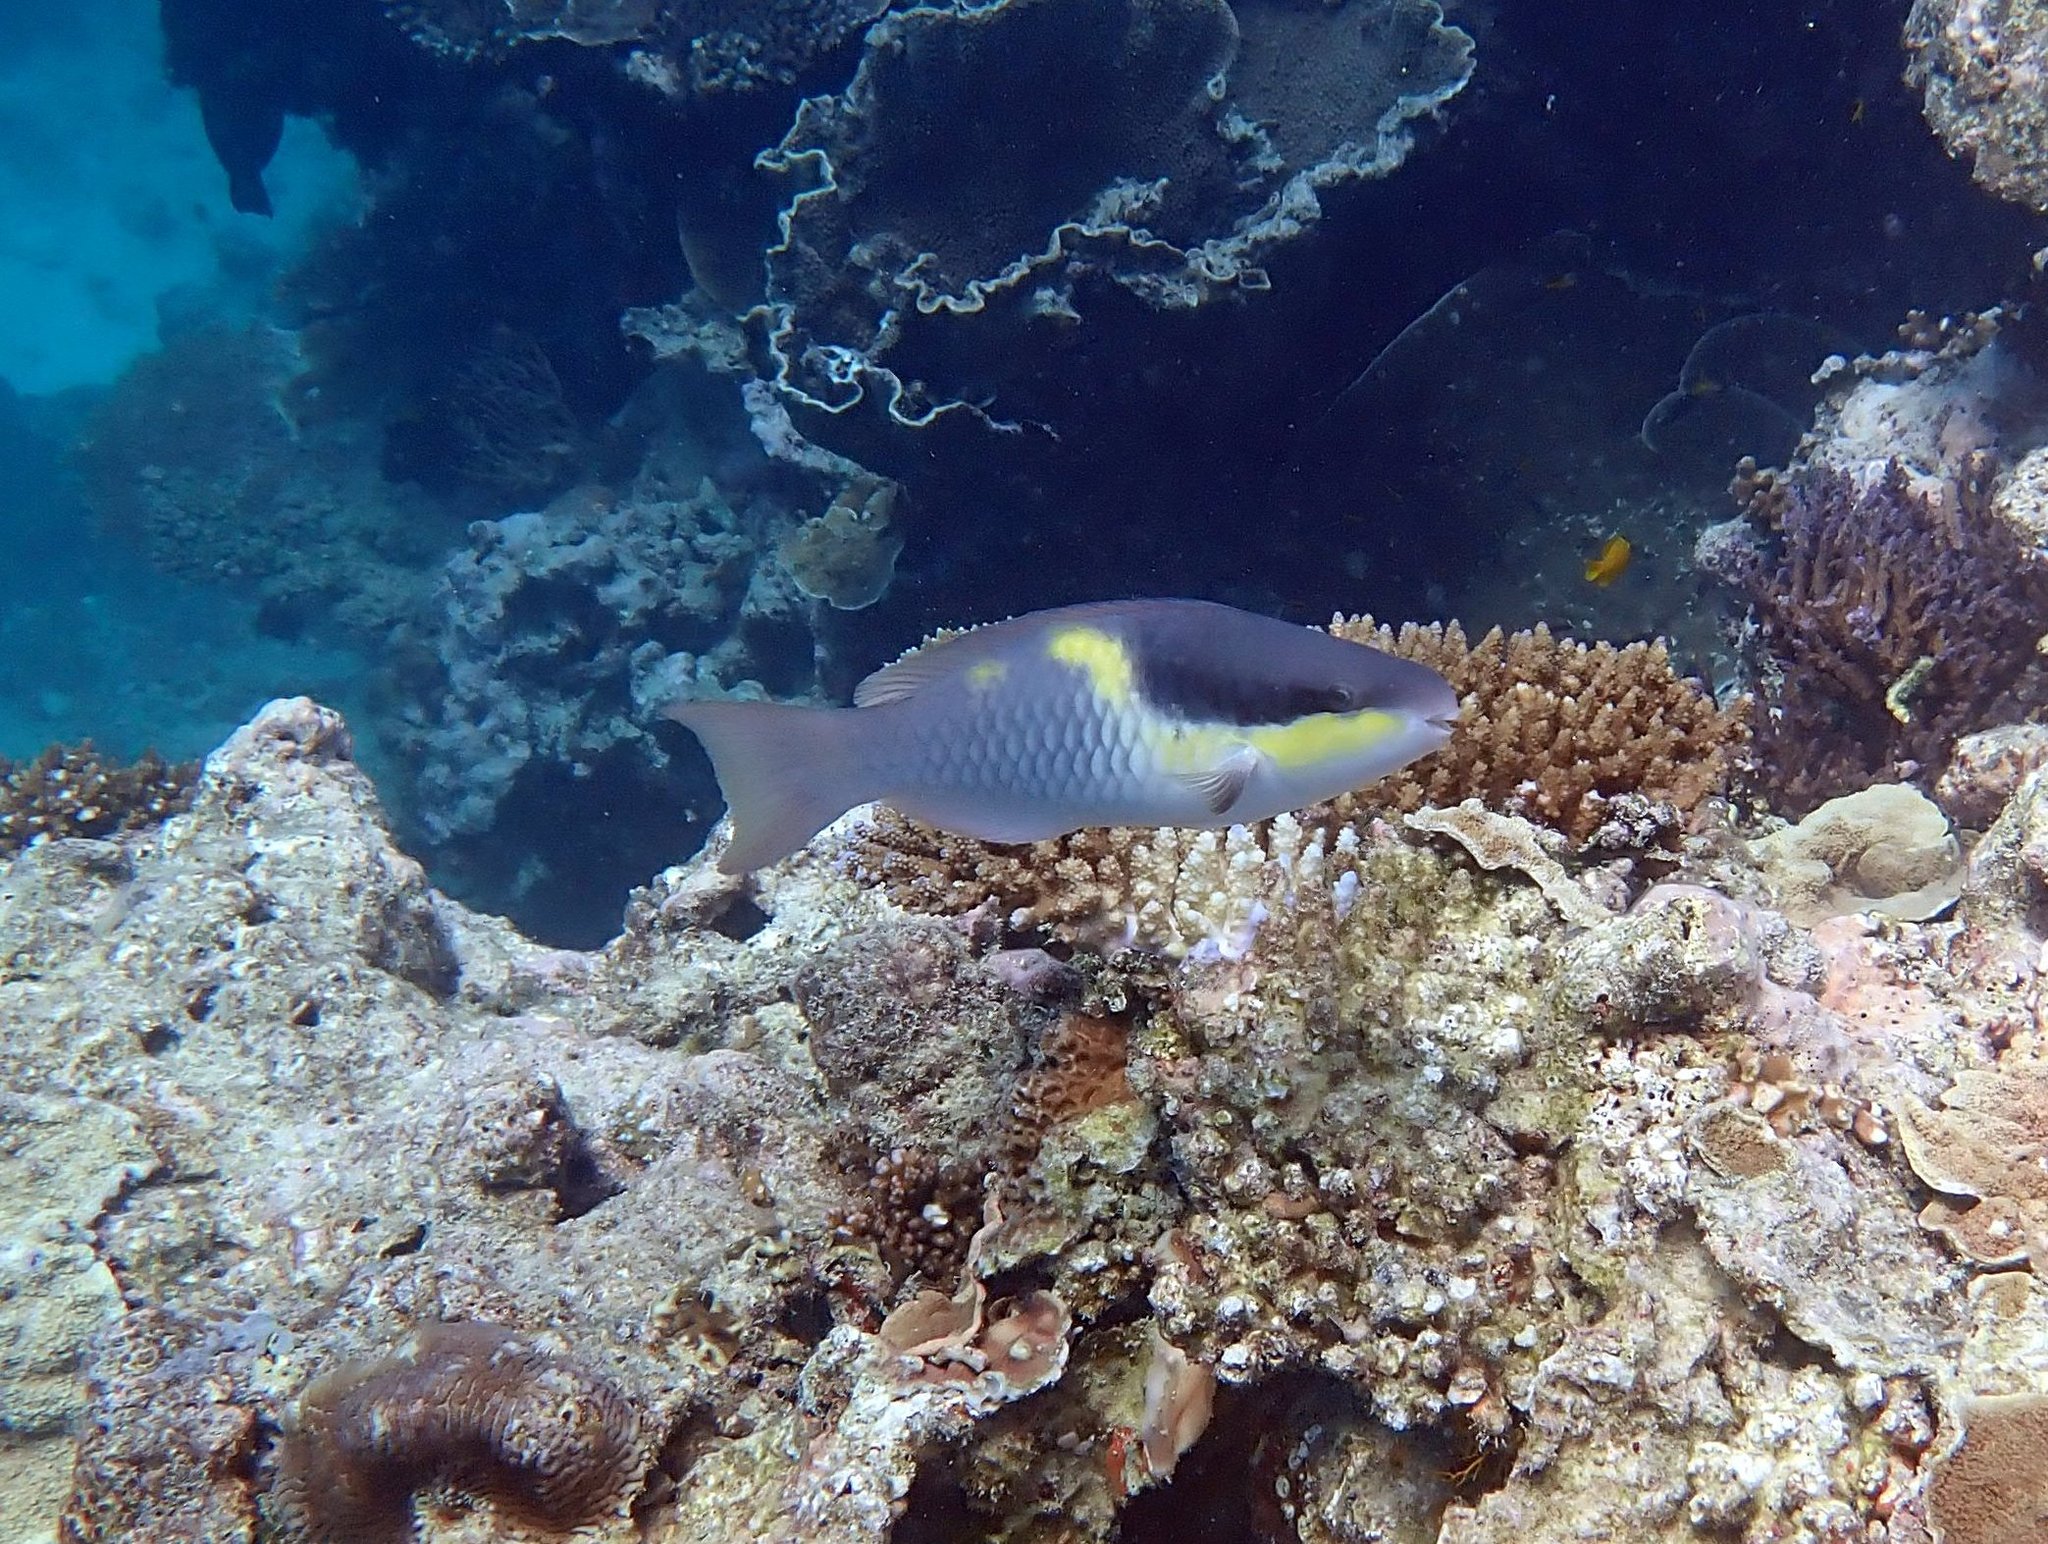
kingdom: Animalia
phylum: Chordata
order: Perciformes
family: Scaridae
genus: Scarus
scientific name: Scarus oviceps
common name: Blue parrotfish
